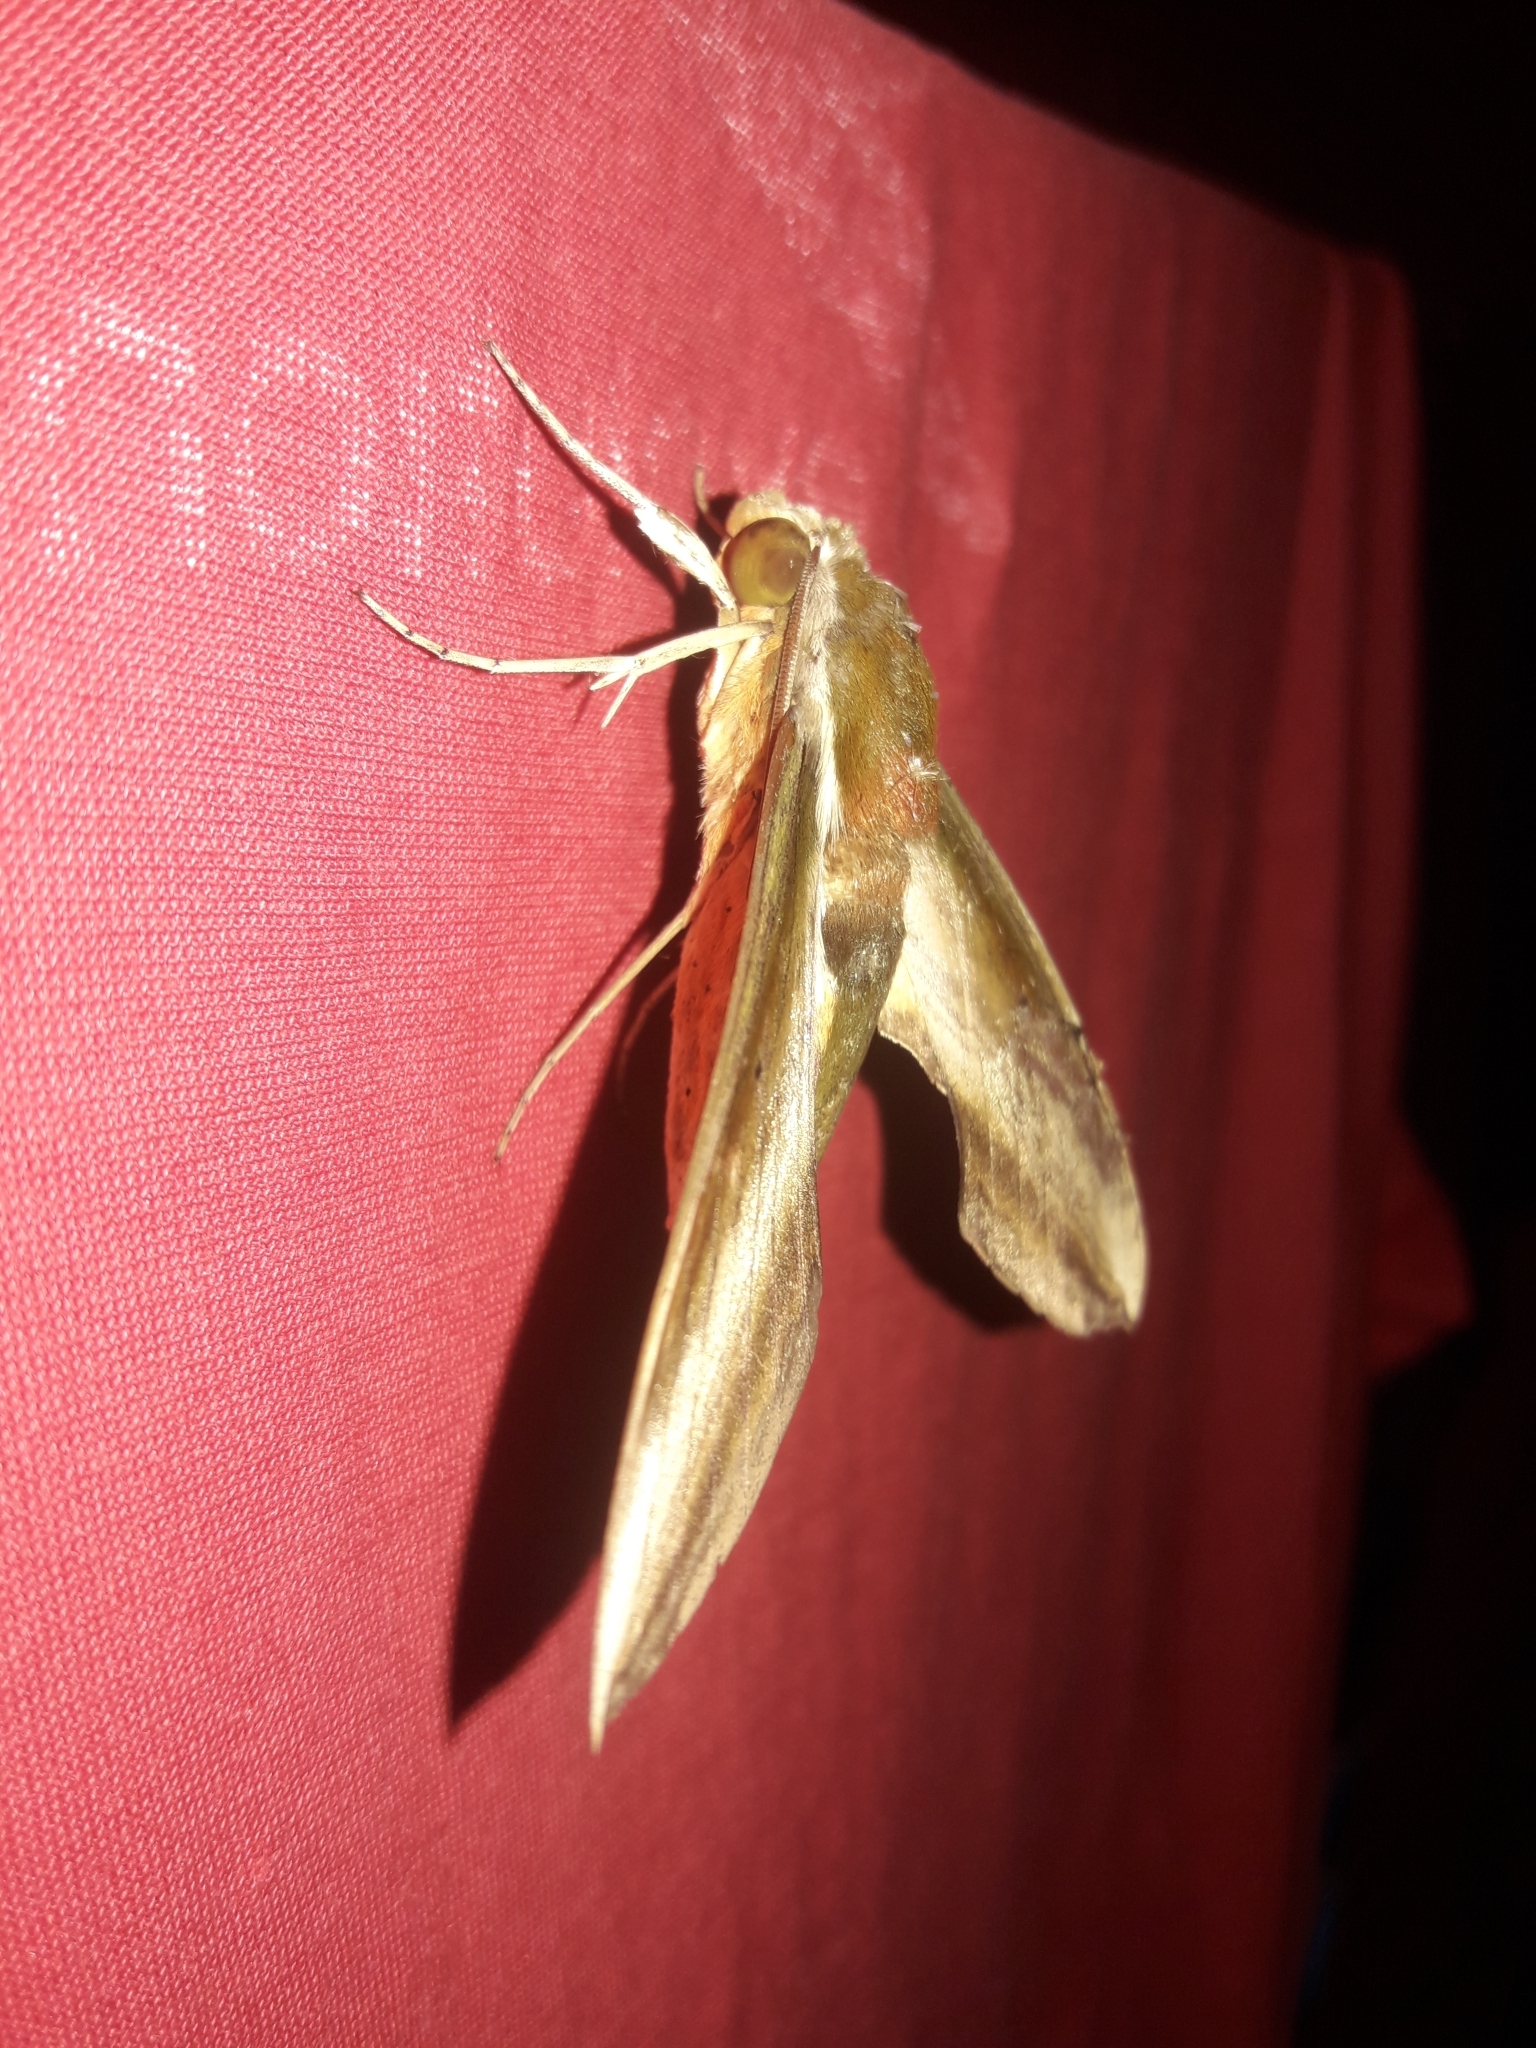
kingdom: Animalia
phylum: Arthropoda
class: Insecta
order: Lepidoptera
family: Sphingidae
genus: Theretra
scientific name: Theretra nessus
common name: Yam hawk moth
